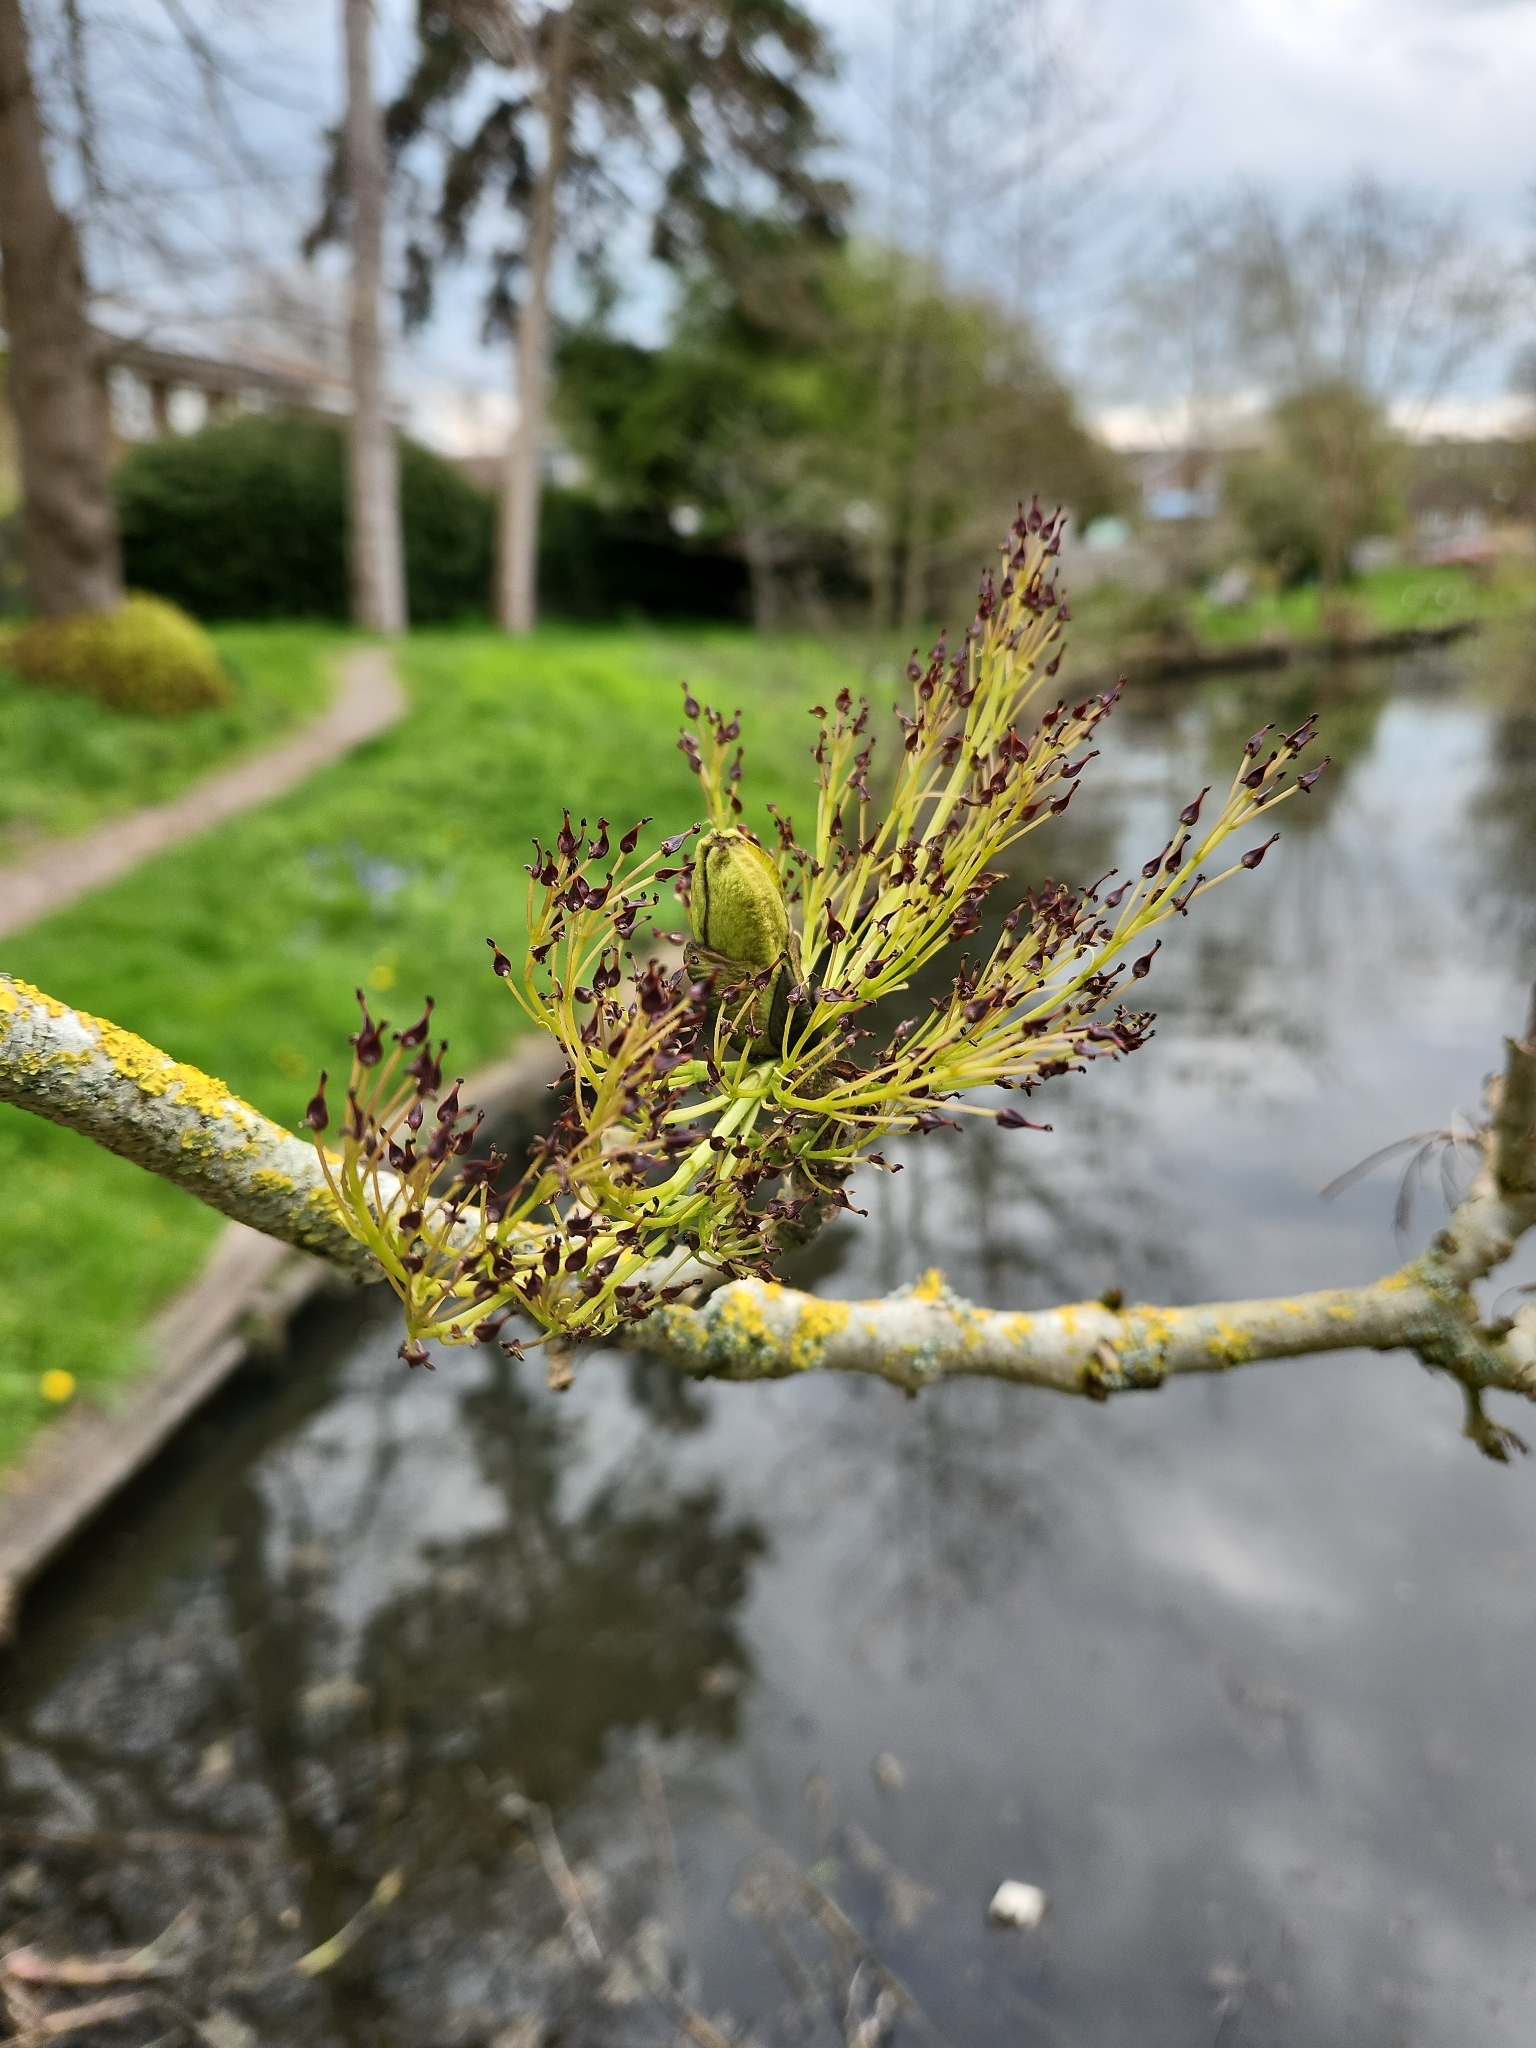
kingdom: Plantae
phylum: Tracheophyta
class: Magnoliopsida
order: Lamiales
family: Oleaceae
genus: Fraxinus
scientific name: Fraxinus excelsior
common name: European ash
